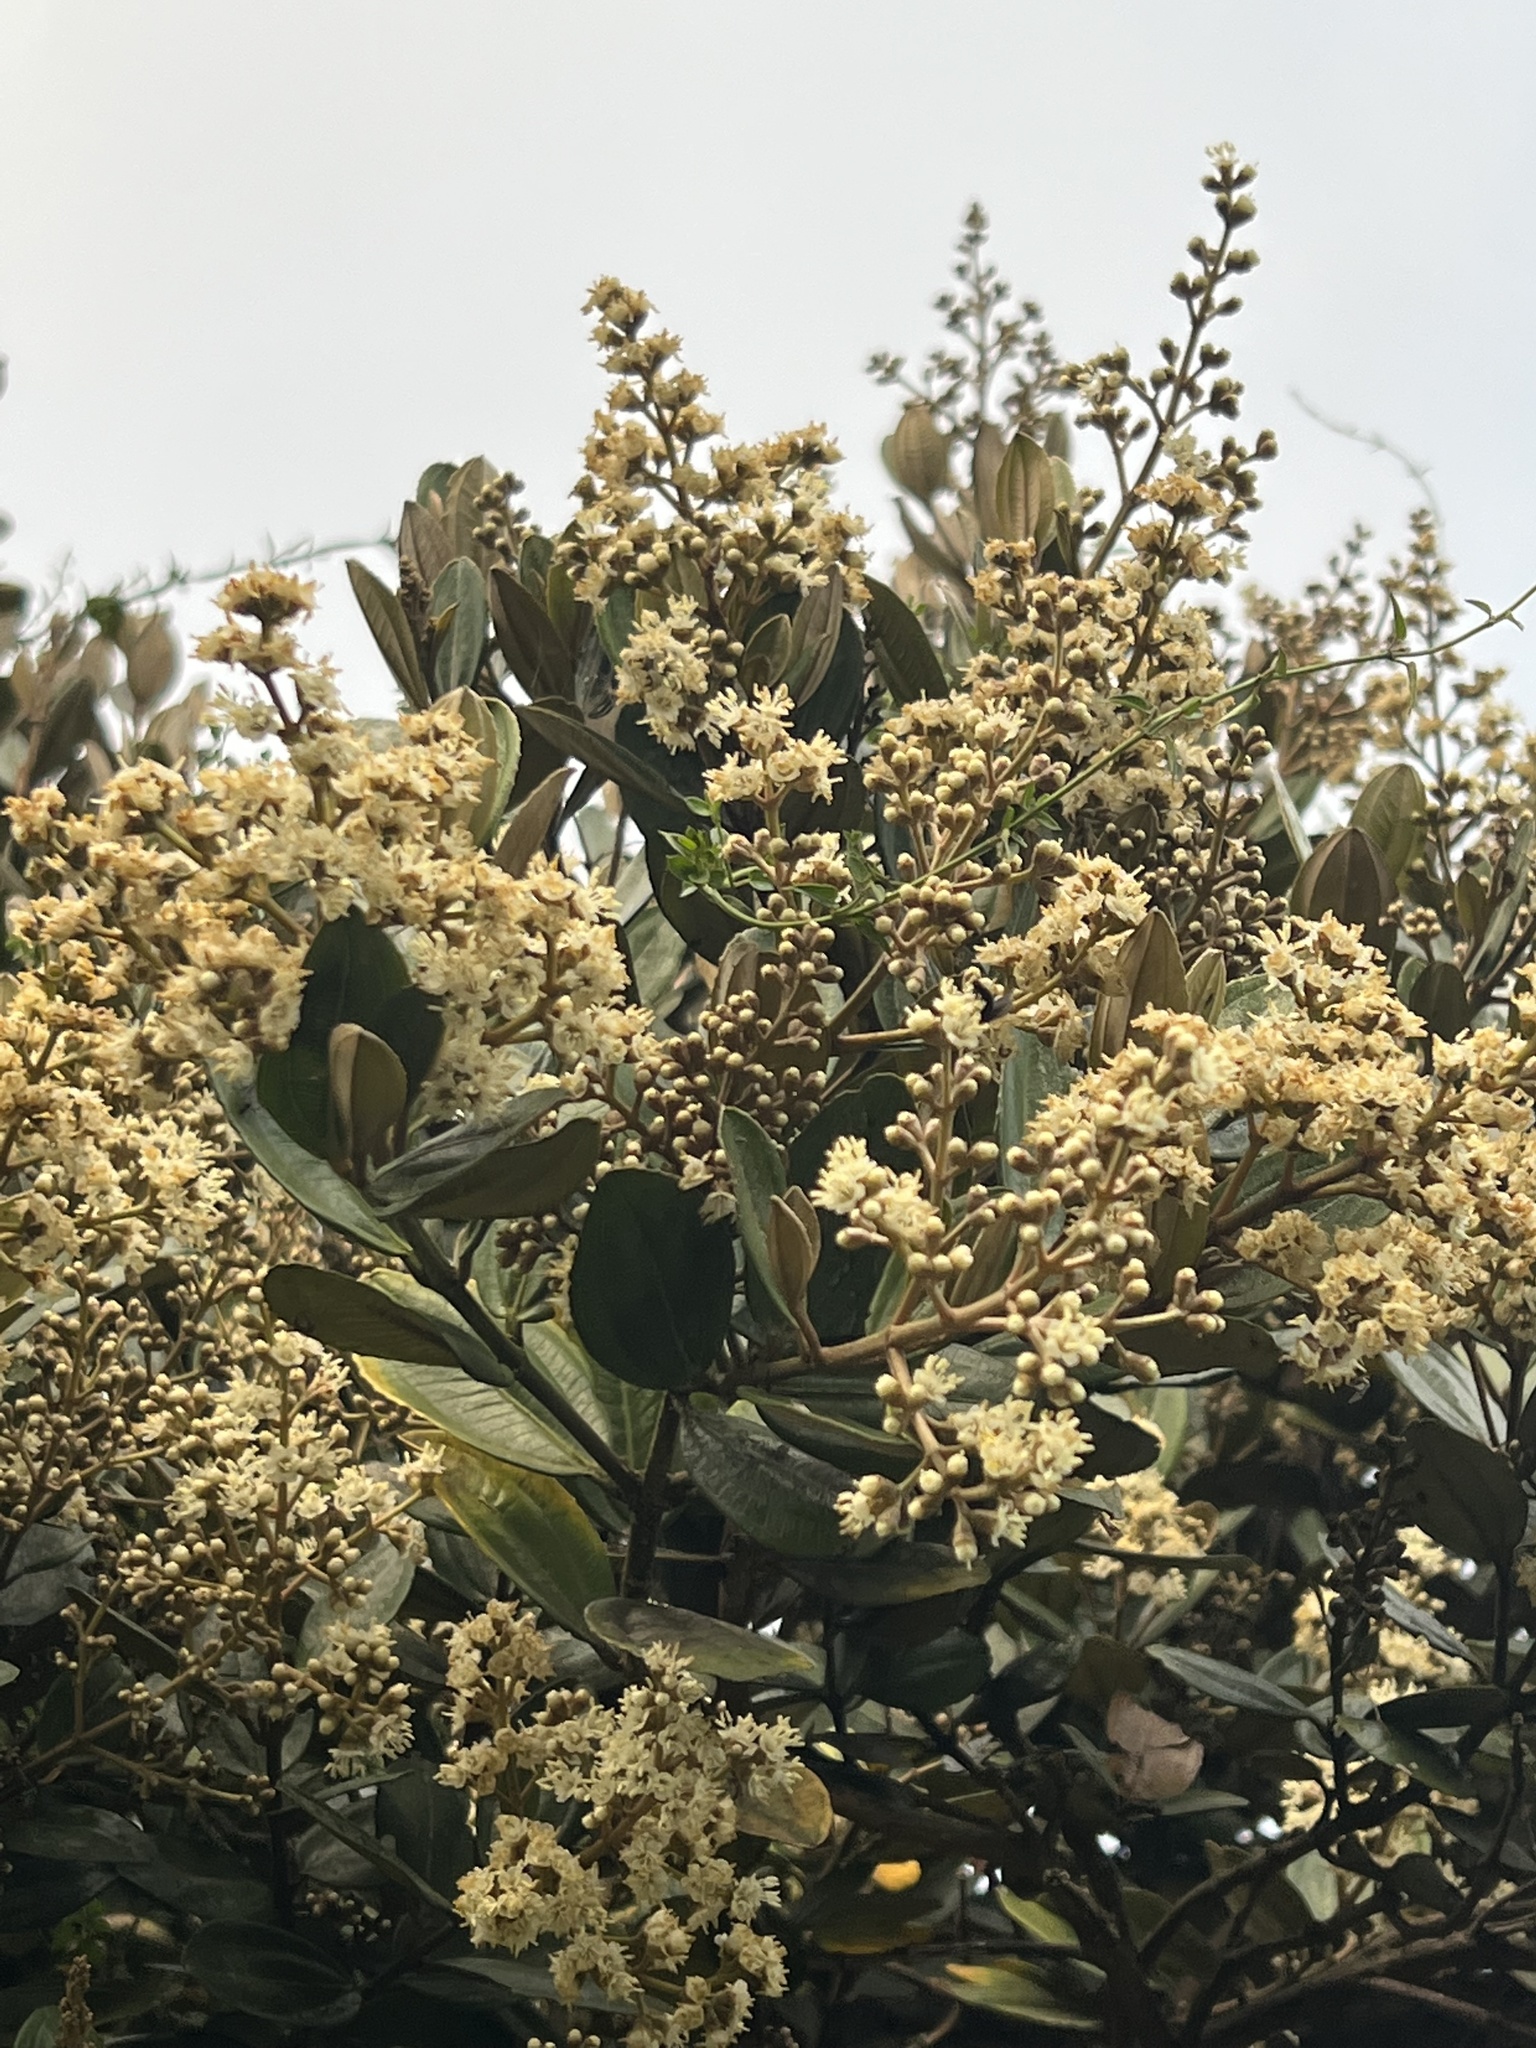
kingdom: Plantae
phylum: Tracheophyta
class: Magnoliopsida
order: Myrtales
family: Melastomataceae
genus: Miconia
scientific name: Miconia squamulosa
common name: Squamulose maya
